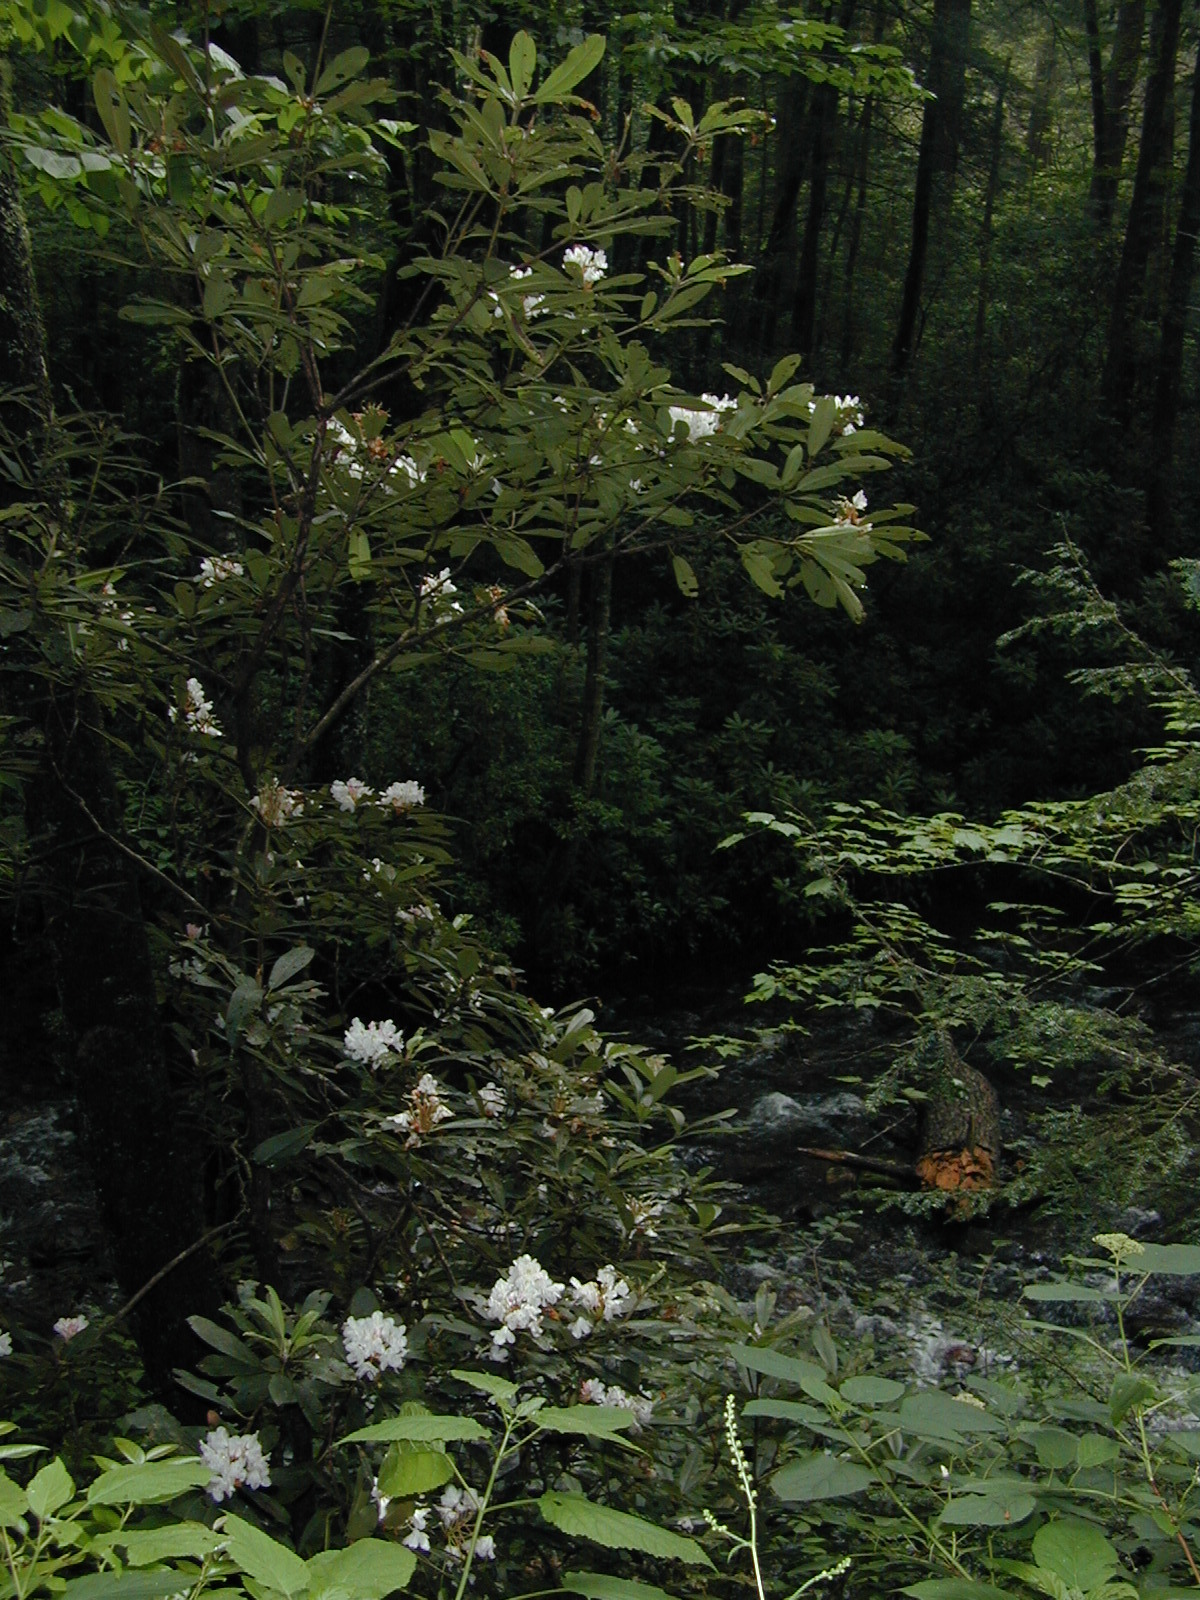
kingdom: Plantae
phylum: Tracheophyta
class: Magnoliopsida
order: Ericales
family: Ericaceae
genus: Rhododendron
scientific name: Rhododendron maximum
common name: Great rhododendron
